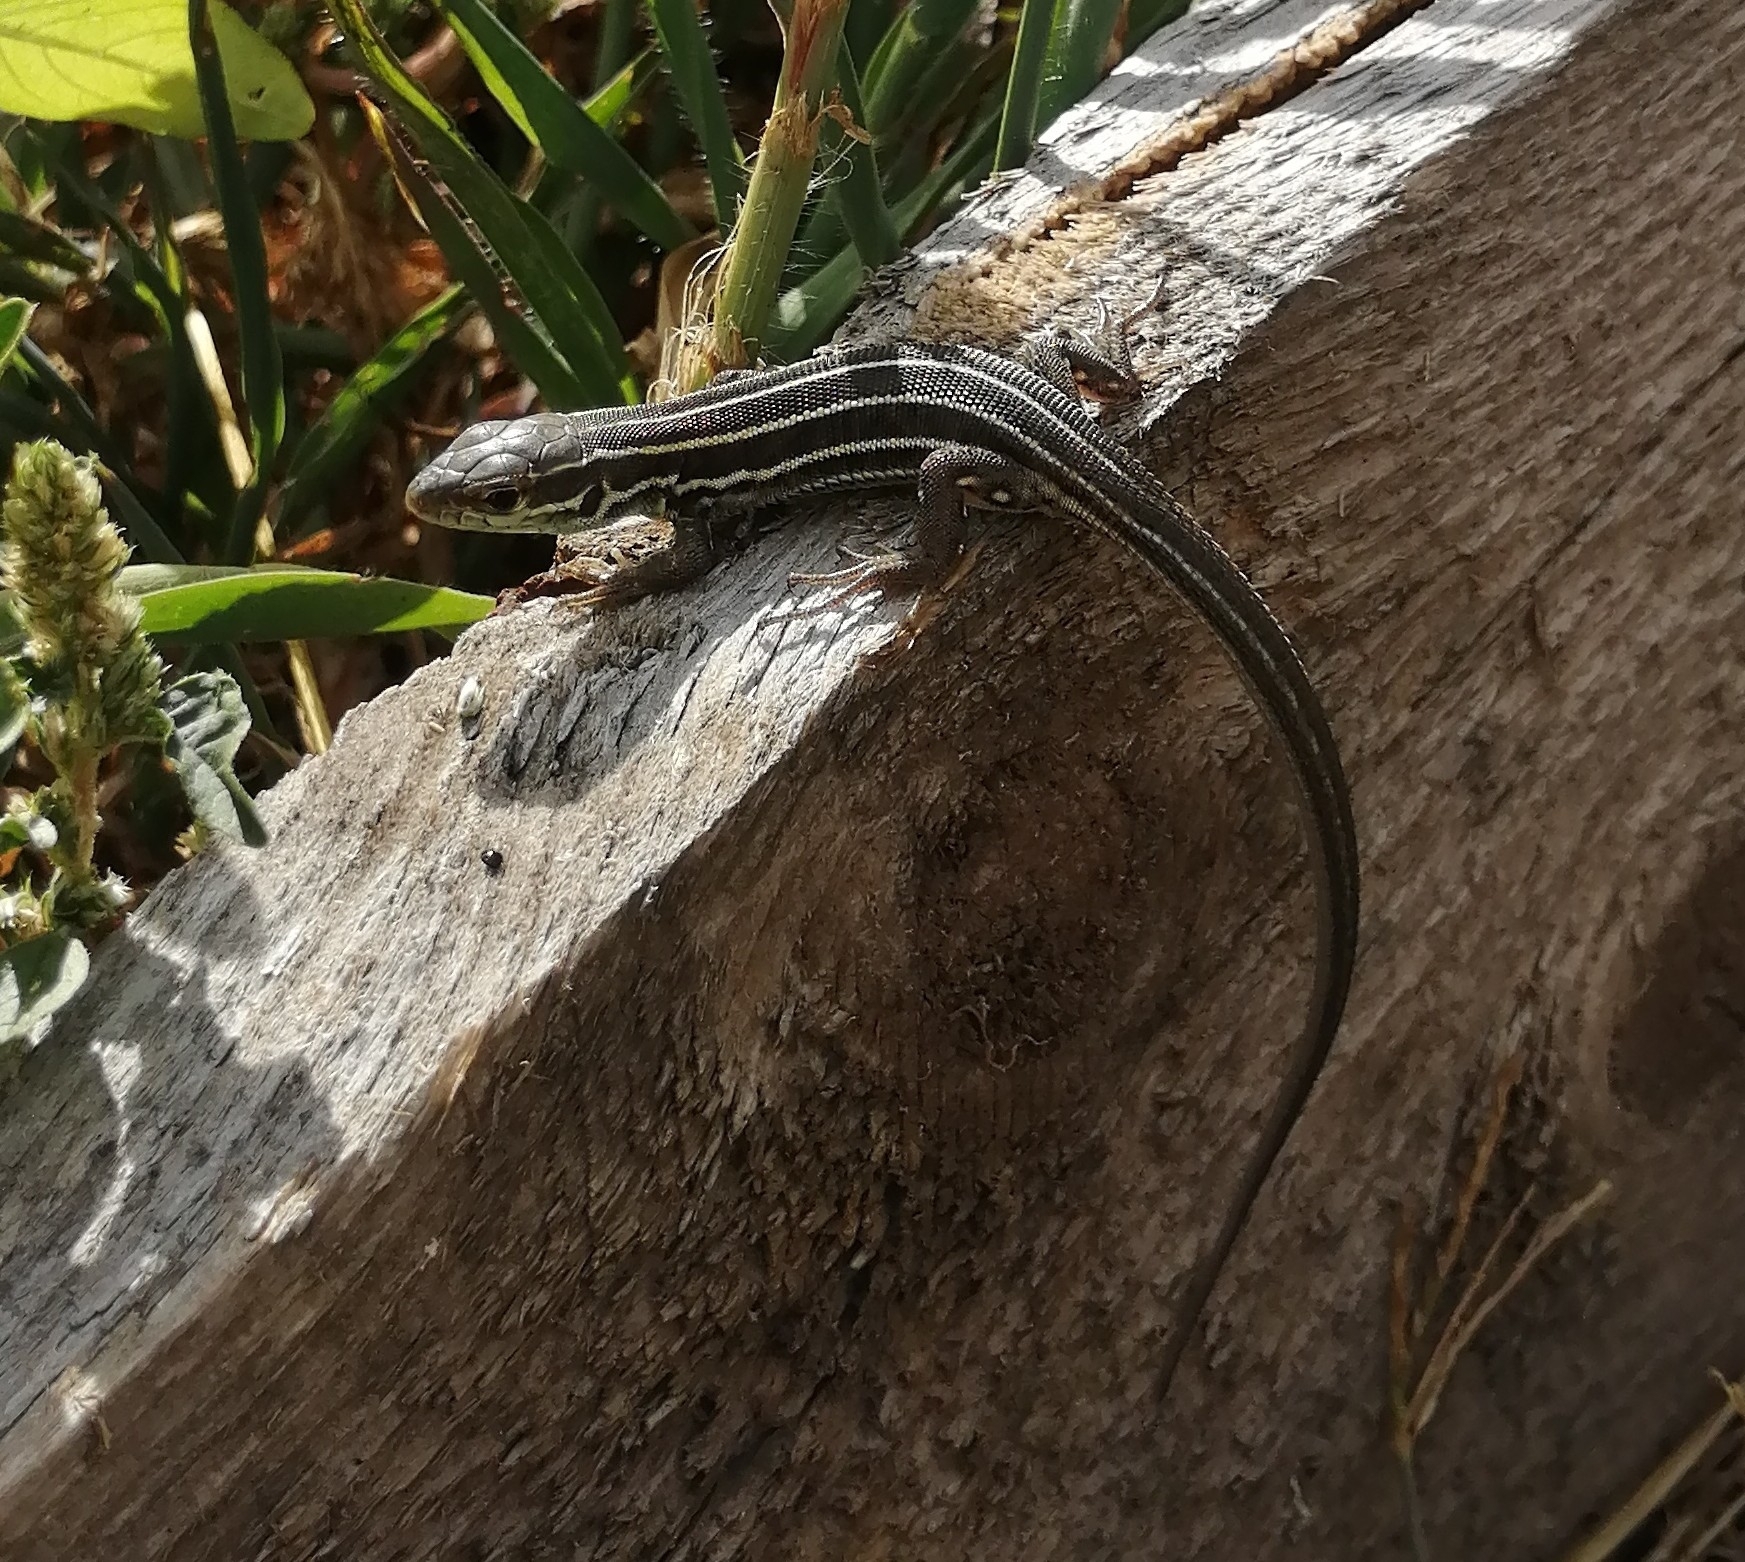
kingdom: Animalia
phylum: Chordata
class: Squamata
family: Lacertidae
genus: Lacerta
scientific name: Lacerta strigata
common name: Caspian green lizard
